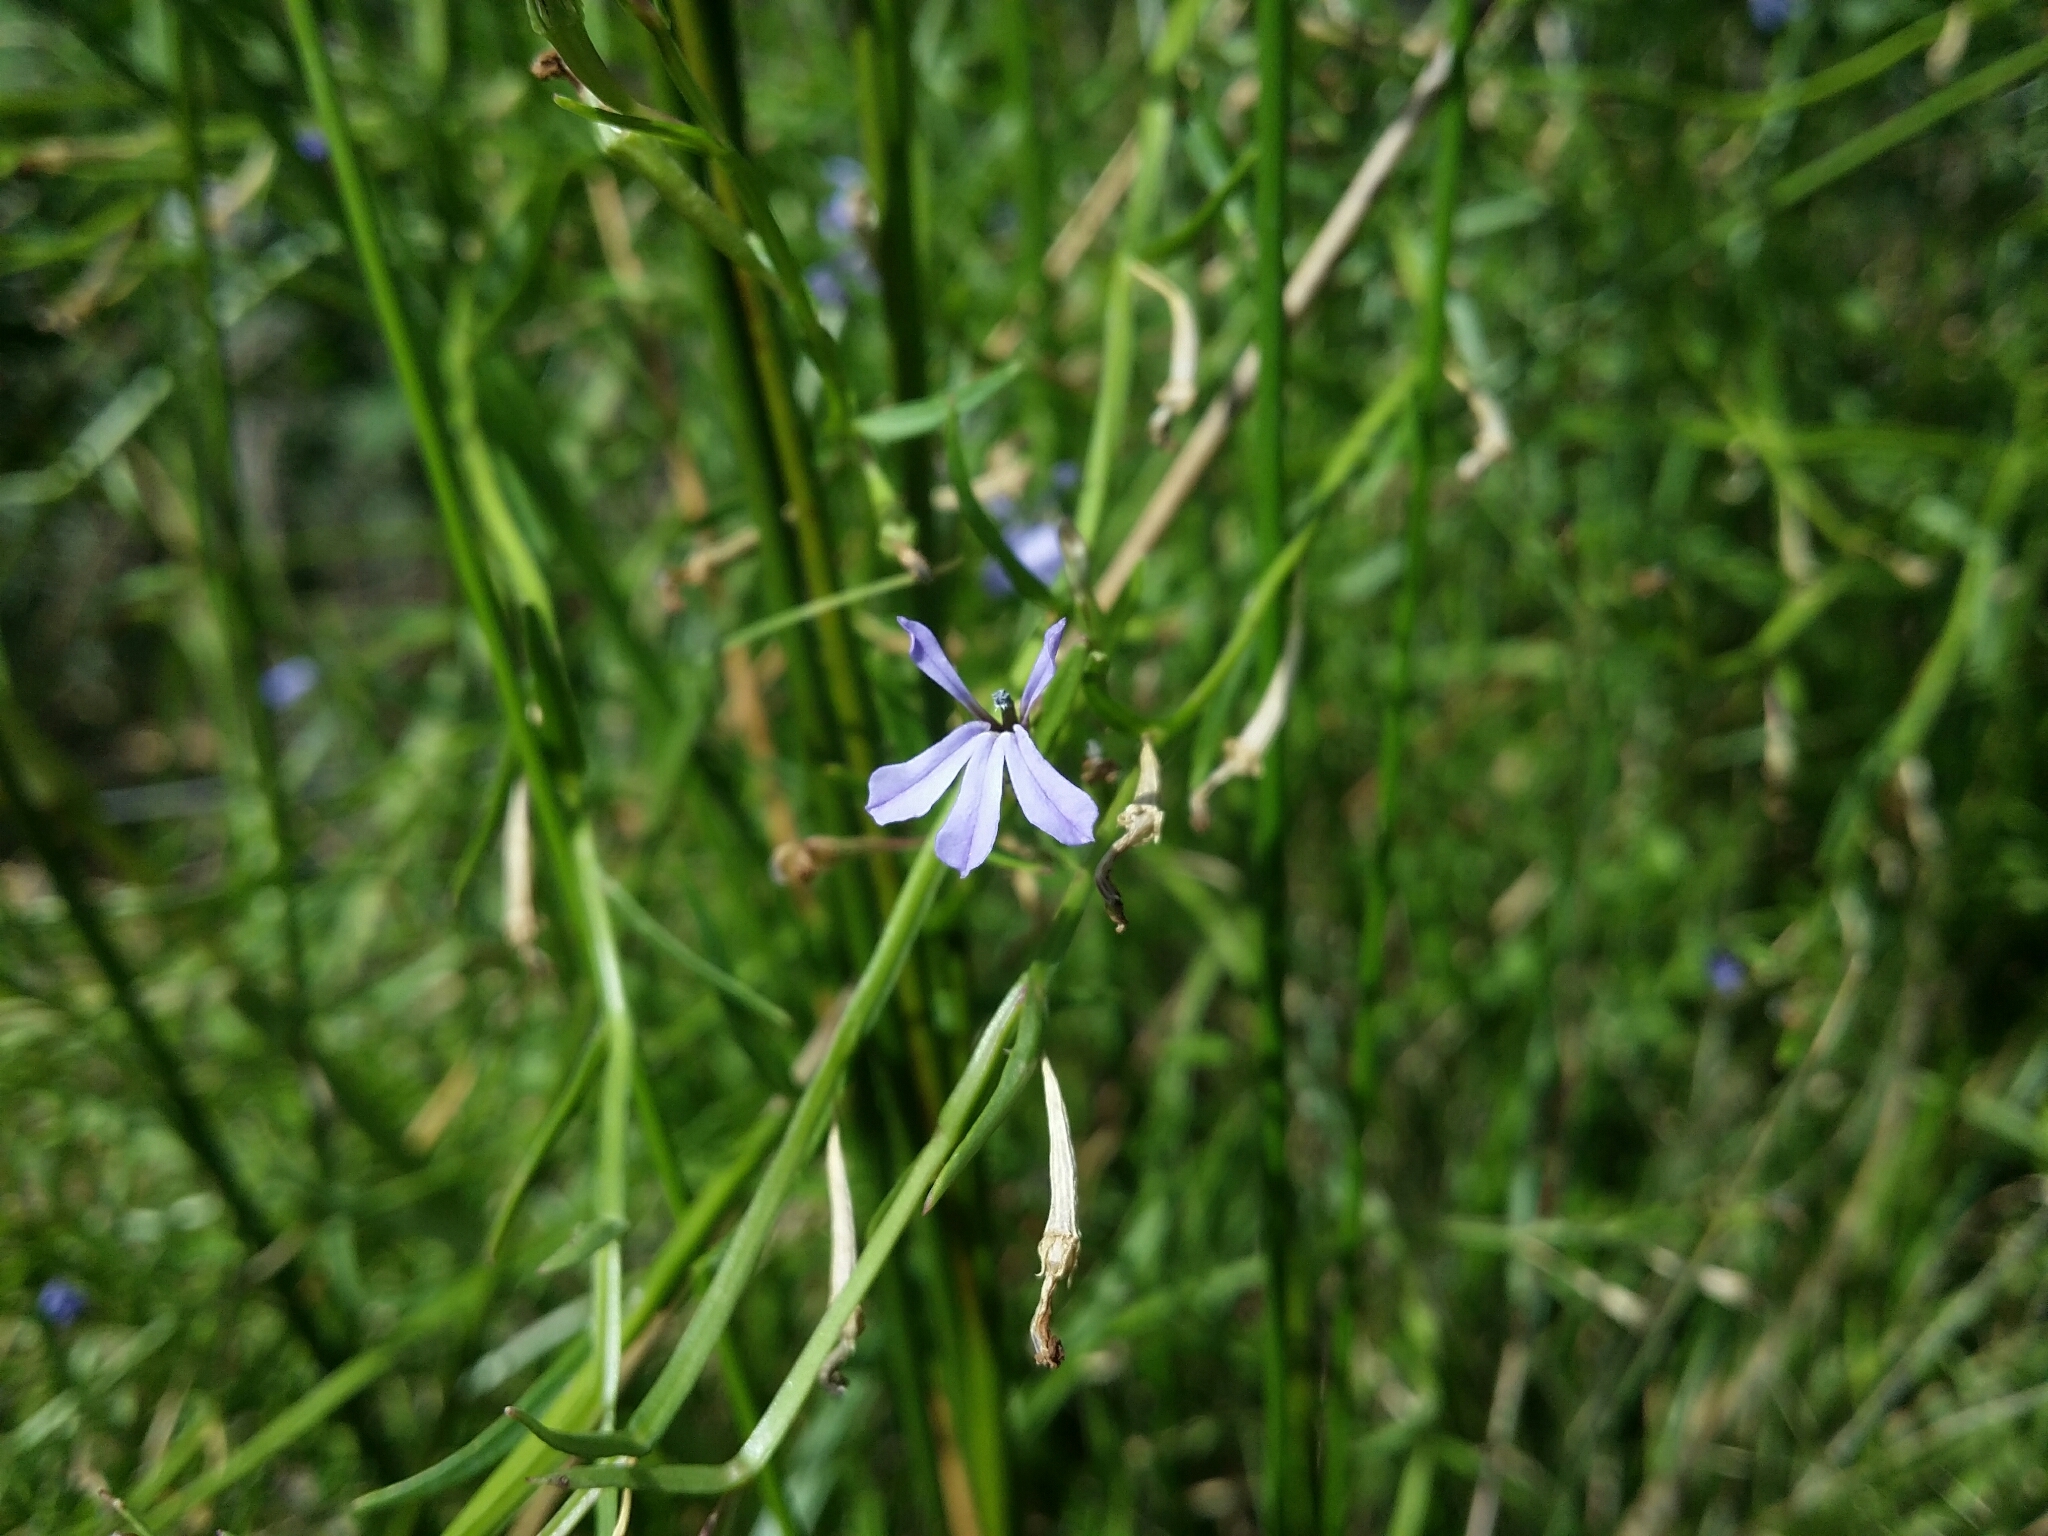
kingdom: Plantae
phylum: Tracheophyta
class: Magnoliopsida
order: Asterales
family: Campanulaceae
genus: Lobelia
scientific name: Lobelia anceps
